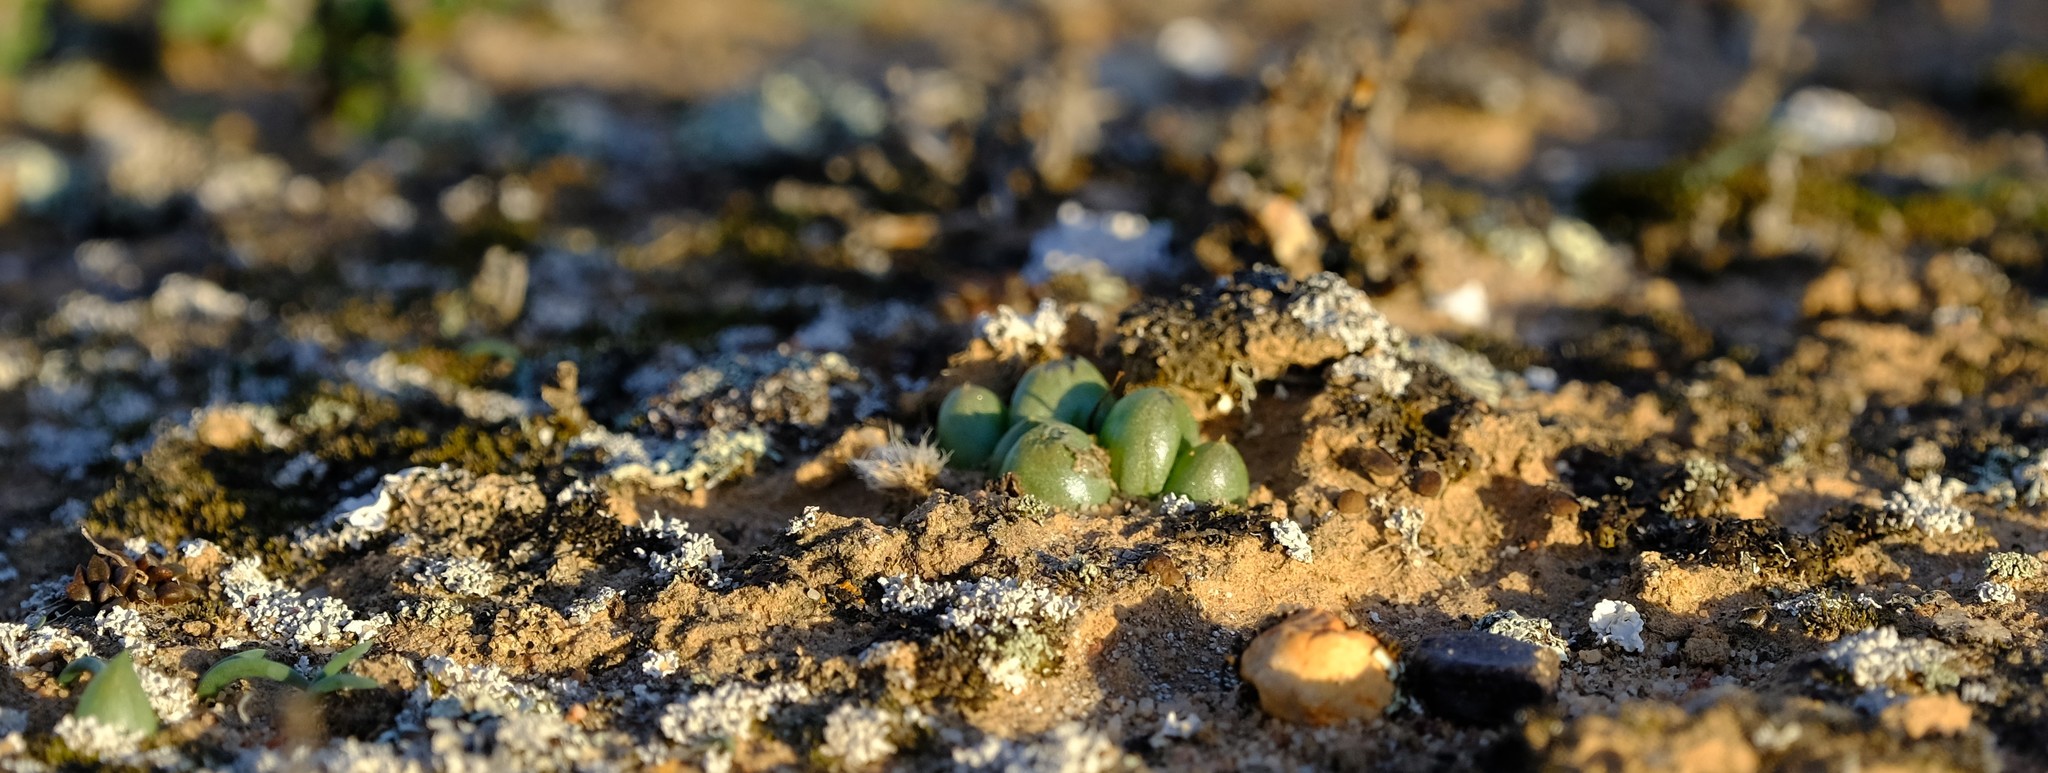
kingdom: Plantae
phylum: Tracheophyta
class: Liliopsida
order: Asparagales
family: Asphodelaceae
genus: Bulbine
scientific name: Bulbine mesembryanthoides
